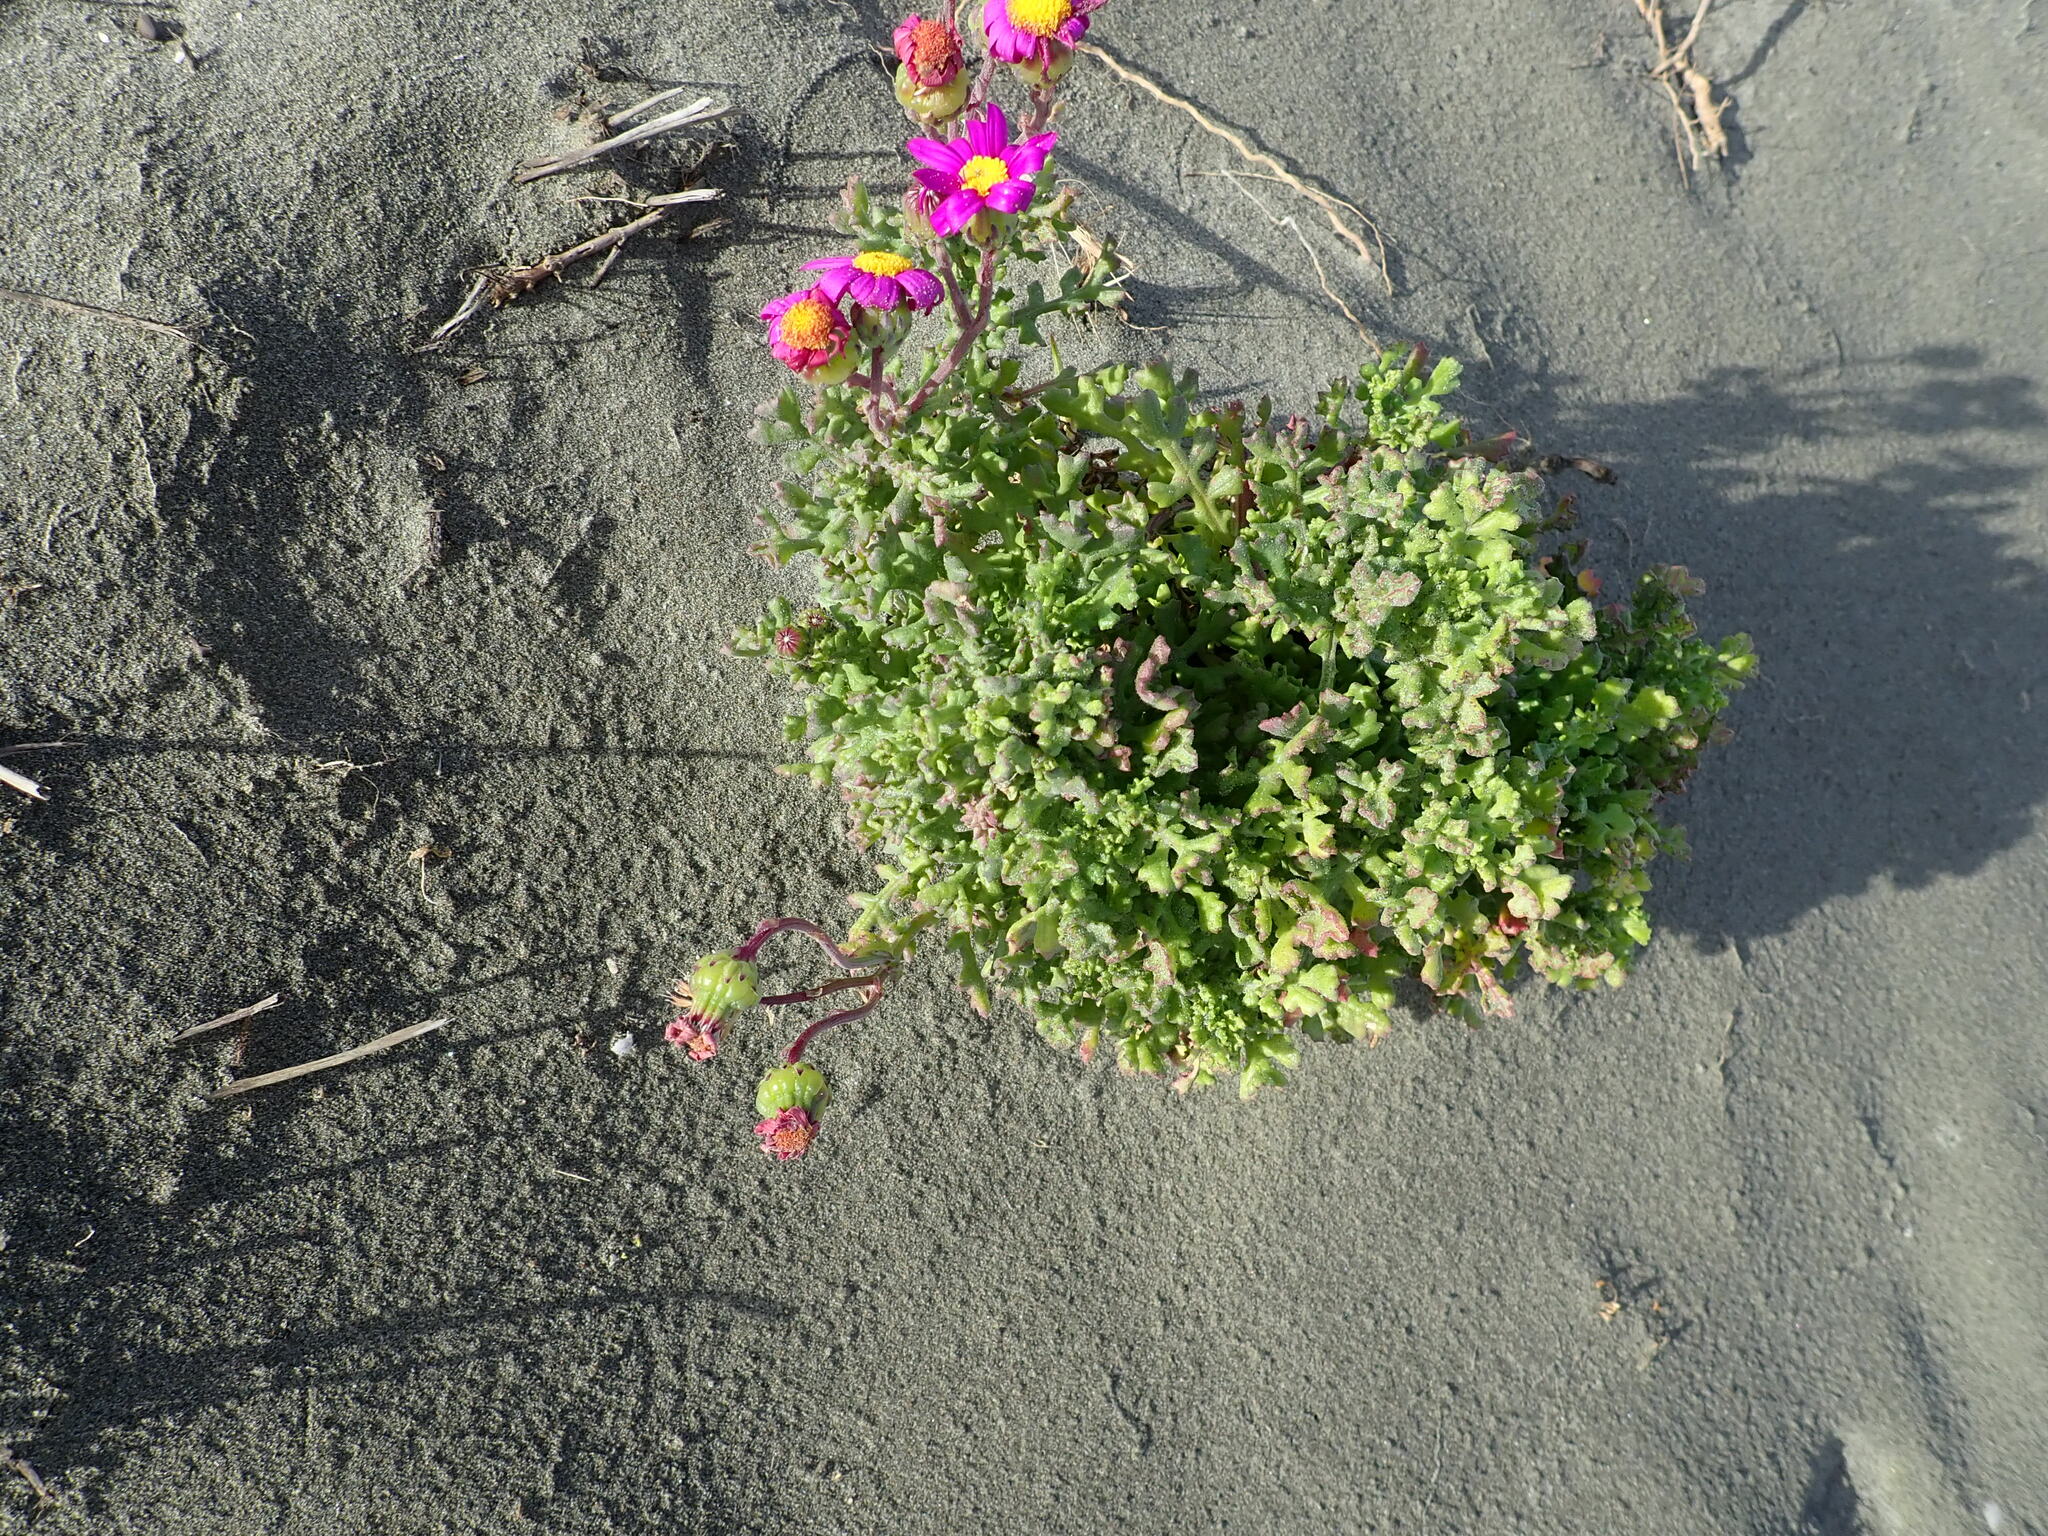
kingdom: Plantae
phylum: Tracheophyta
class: Magnoliopsida
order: Asterales
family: Asteraceae
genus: Senecio
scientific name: Senecio elegans
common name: Purple groundsel
